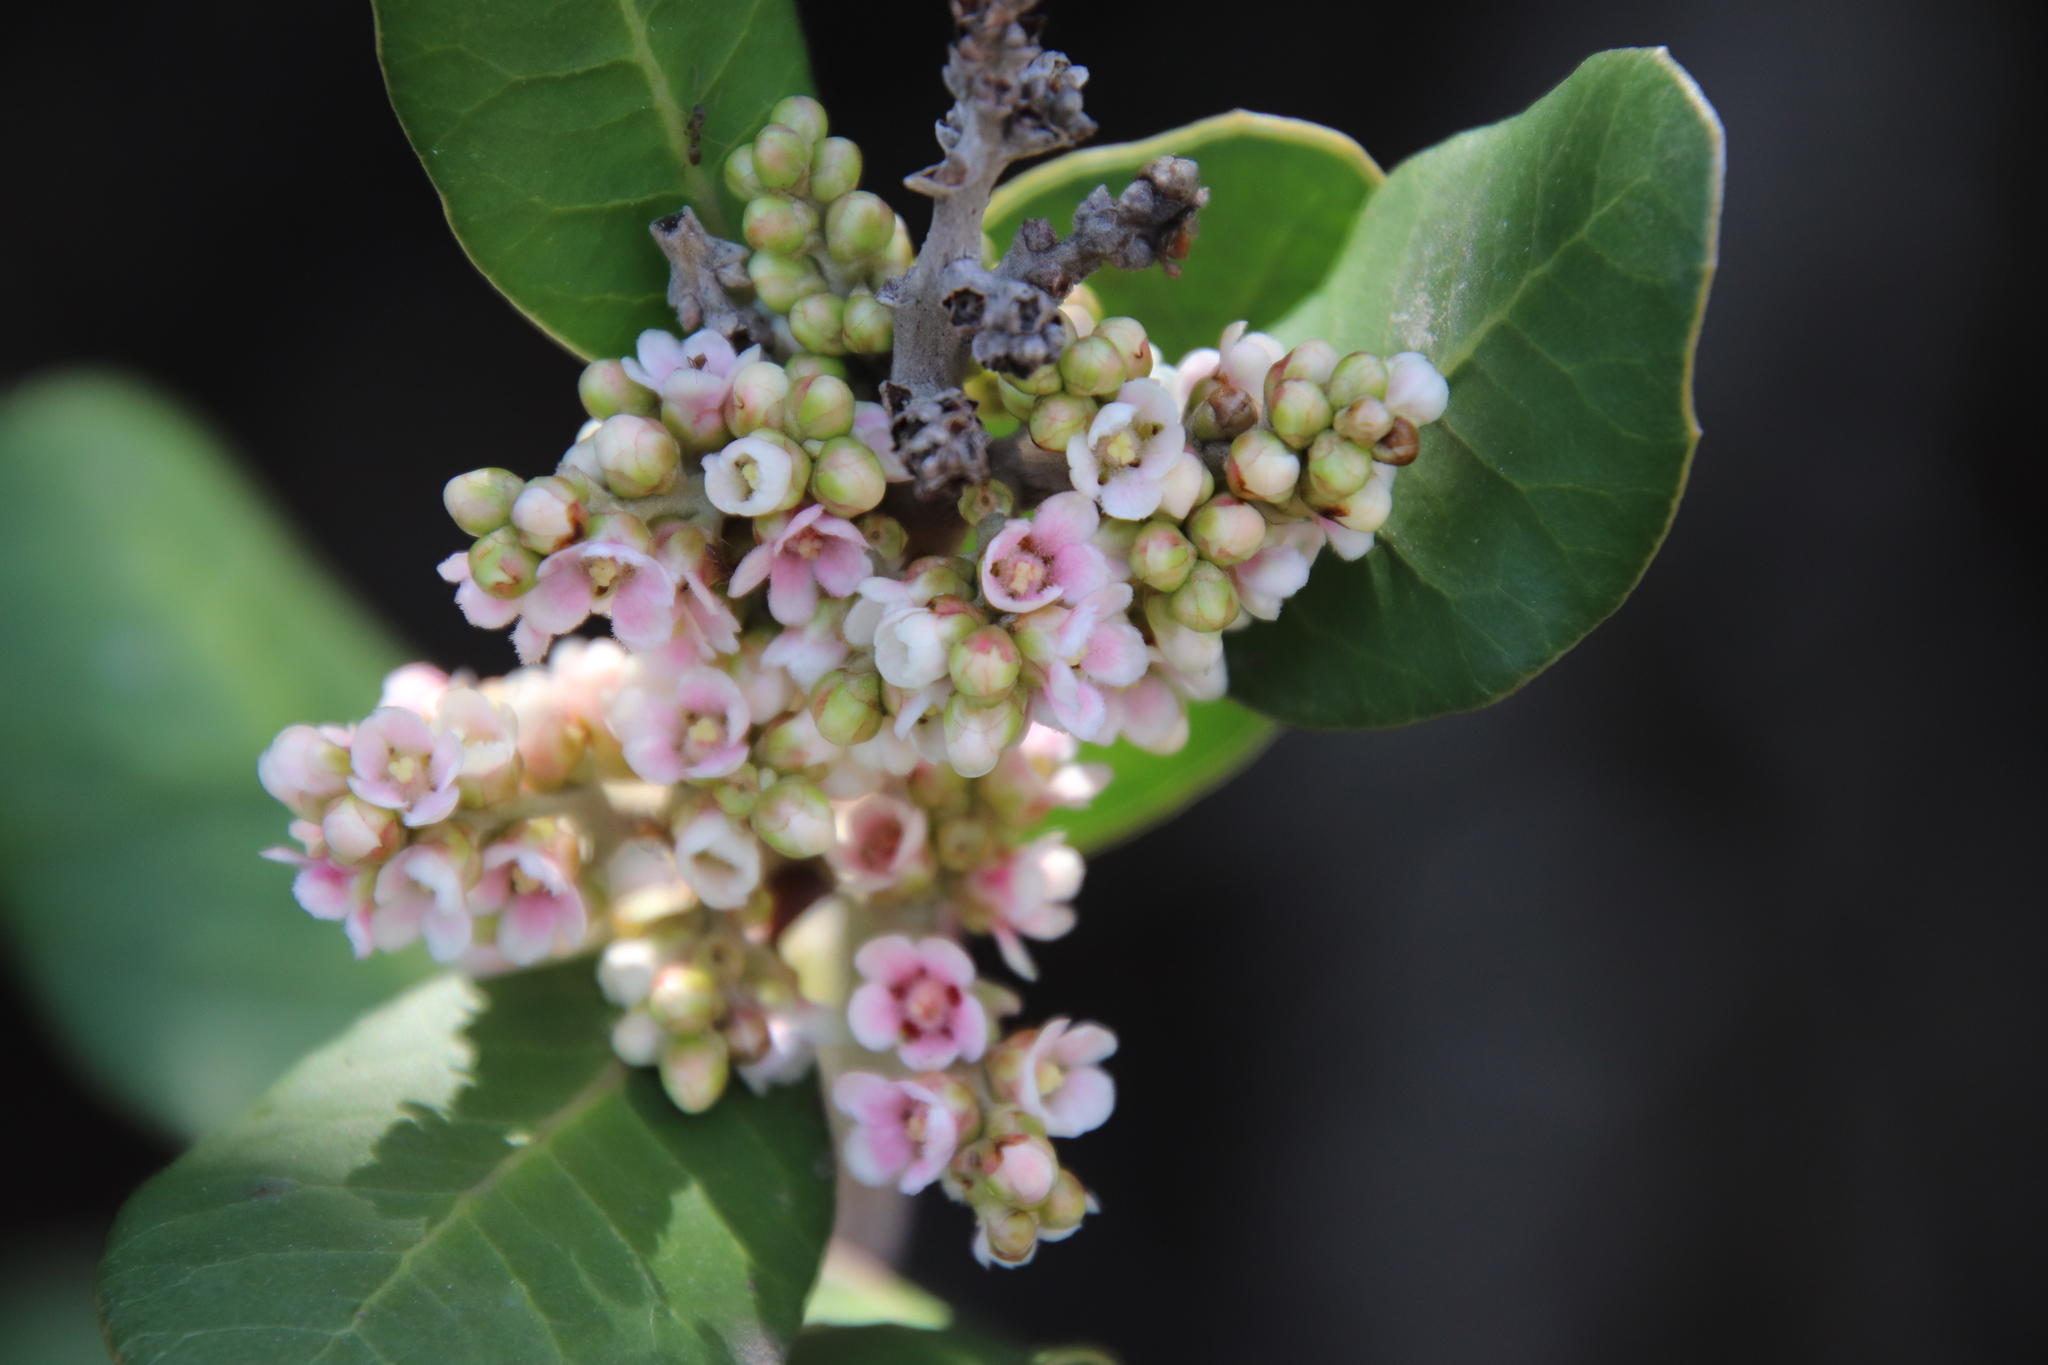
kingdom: Plantae
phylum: Tracheophyta
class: Magnoliopsida
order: Sapindales
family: Anacardiaceae
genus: Rhus
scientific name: Rhus integrifolia
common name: Lemonade sumac
